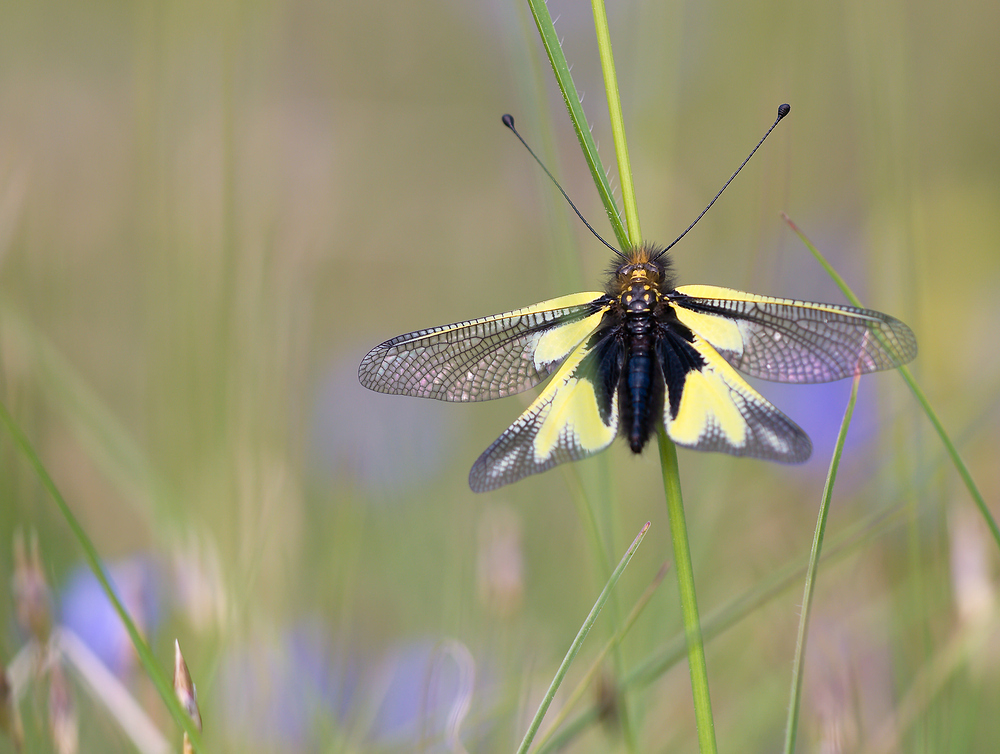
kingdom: Animalia
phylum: Arthropoda
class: Insecta
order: Neuroptera
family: Ascalaphidae
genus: Libelloides
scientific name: Libelloides coccajus
